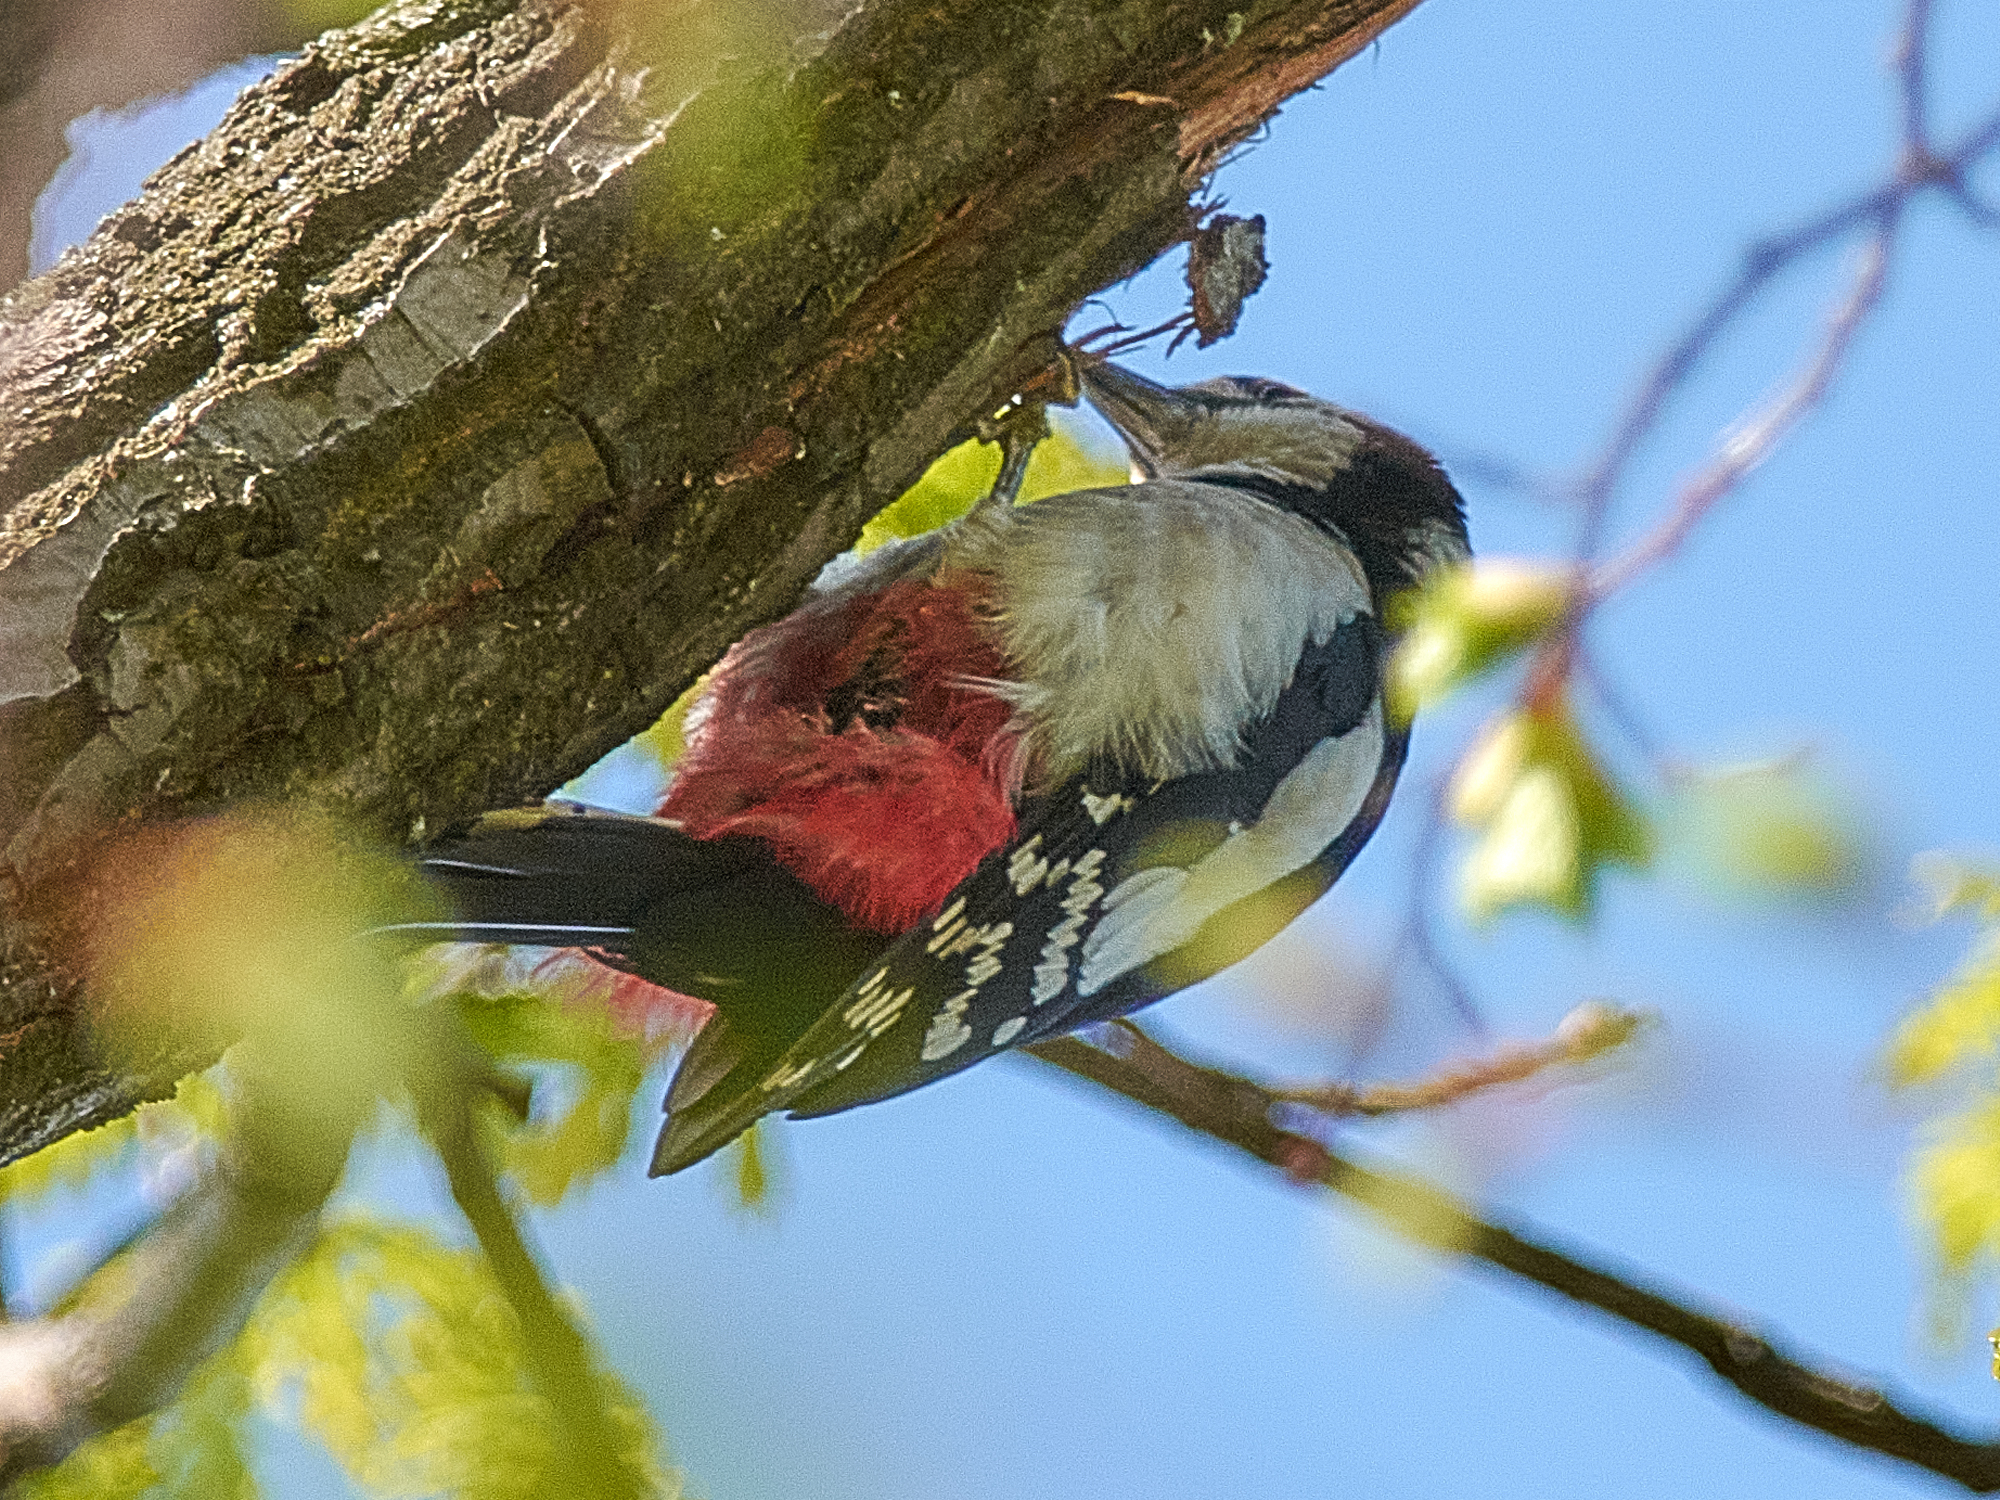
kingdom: Animalia
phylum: Chordata
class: Aves
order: Piciformes
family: Picidae
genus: Dendrocopos
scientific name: Dendrocopos major
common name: Great spotted woodpecker
